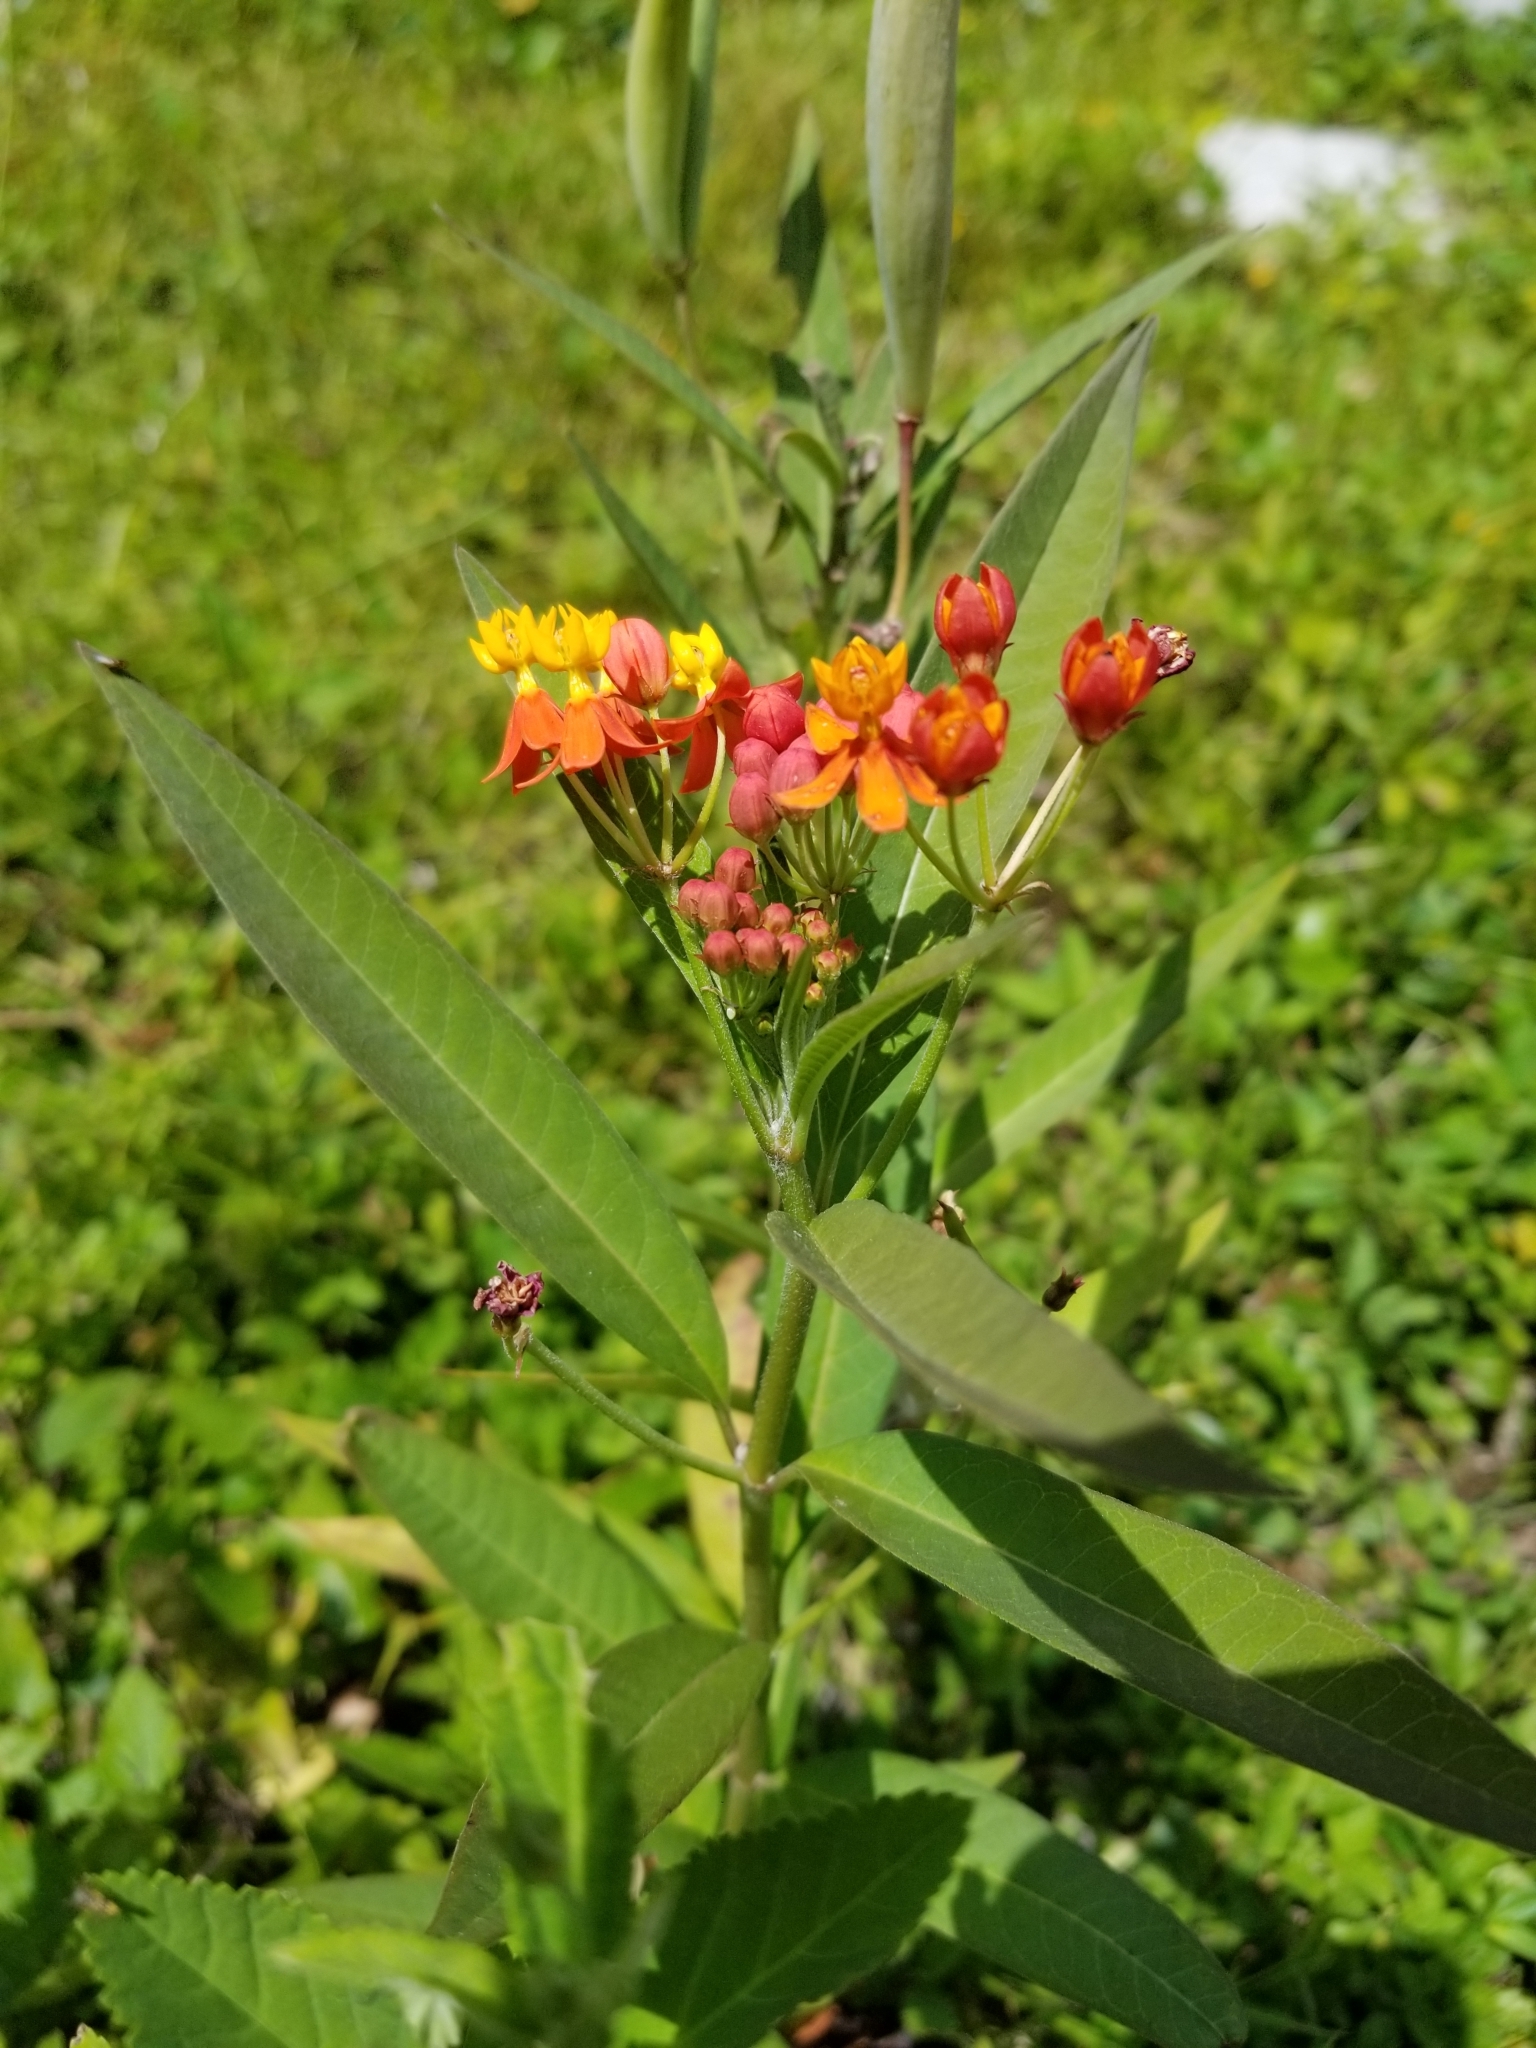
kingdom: Plantae
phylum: Tracheophyta
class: Magnoliopsida
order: Gentianales
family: Apocynaceae
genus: Asclepias
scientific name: Asclepias curassavica
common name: Bloodflower
